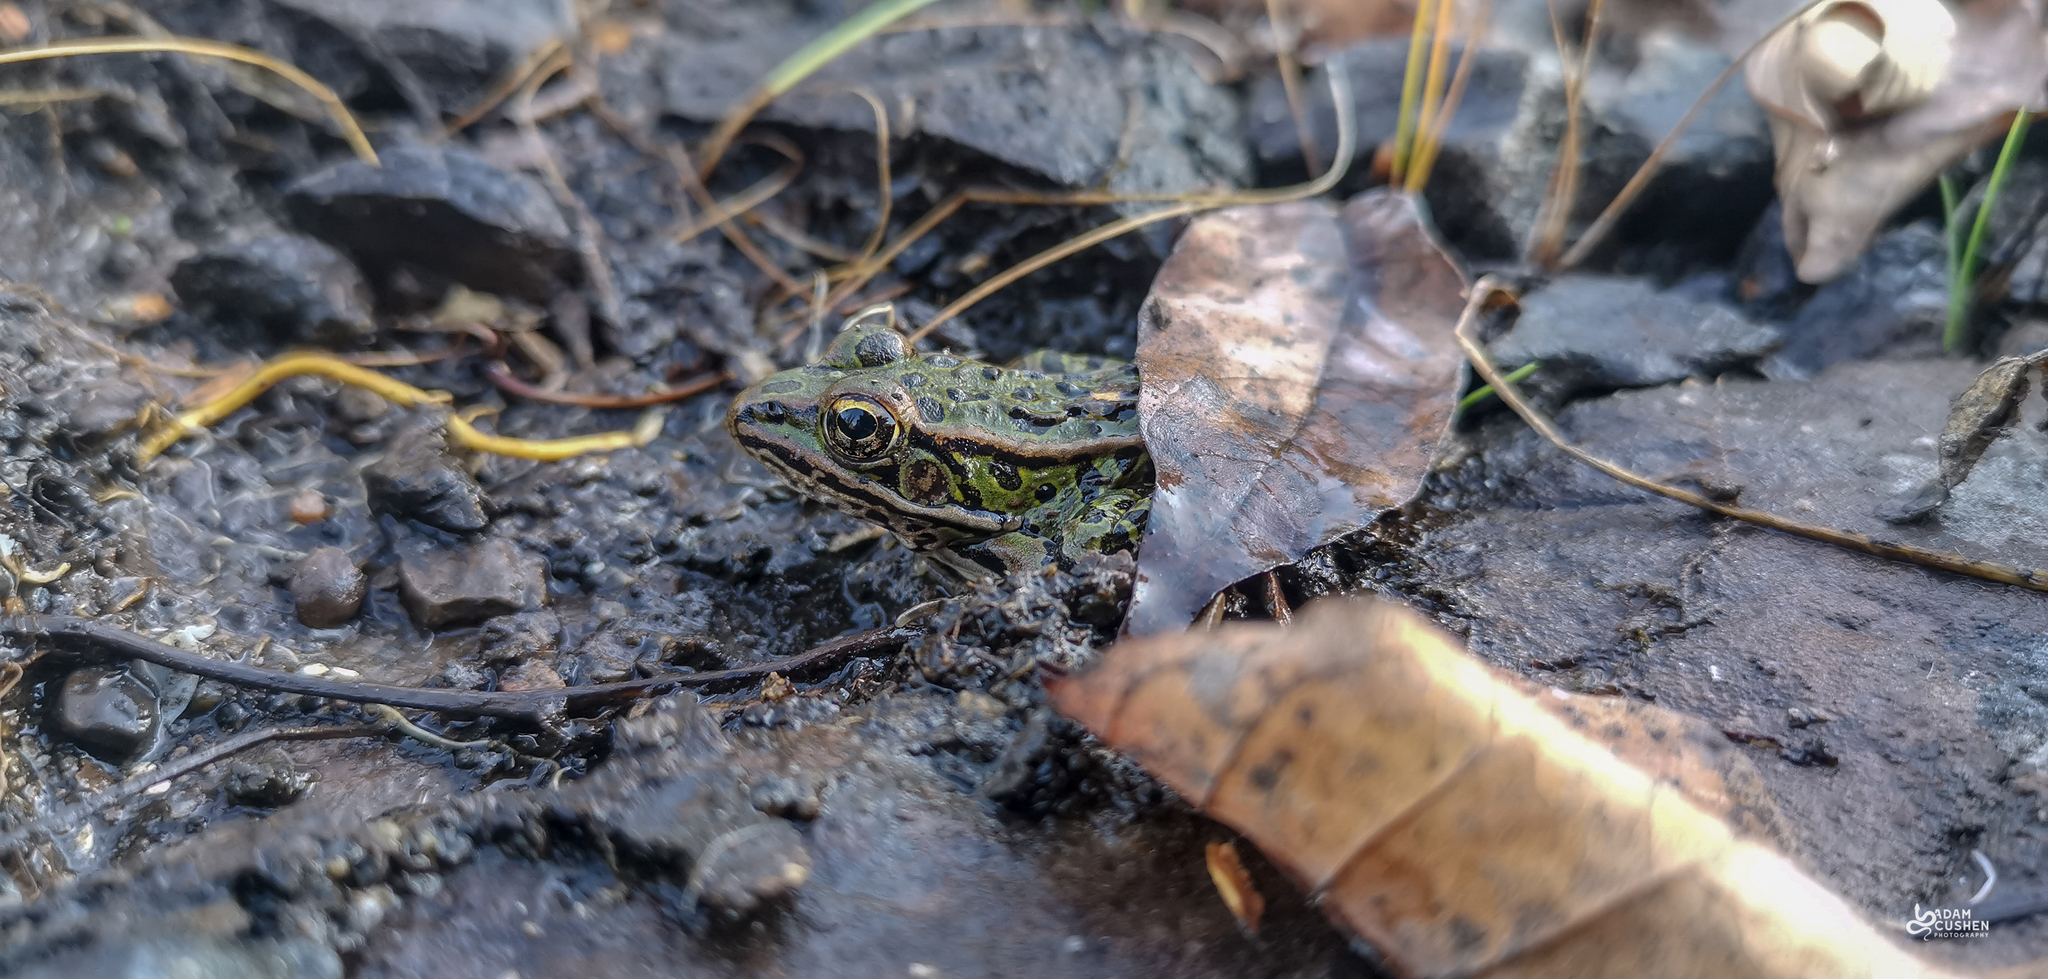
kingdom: Animalia
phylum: Chordata
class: Amphibia
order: Anura
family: Ranidae
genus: Lithobates
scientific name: Lithobates pipiens
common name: Northern leopard frog
